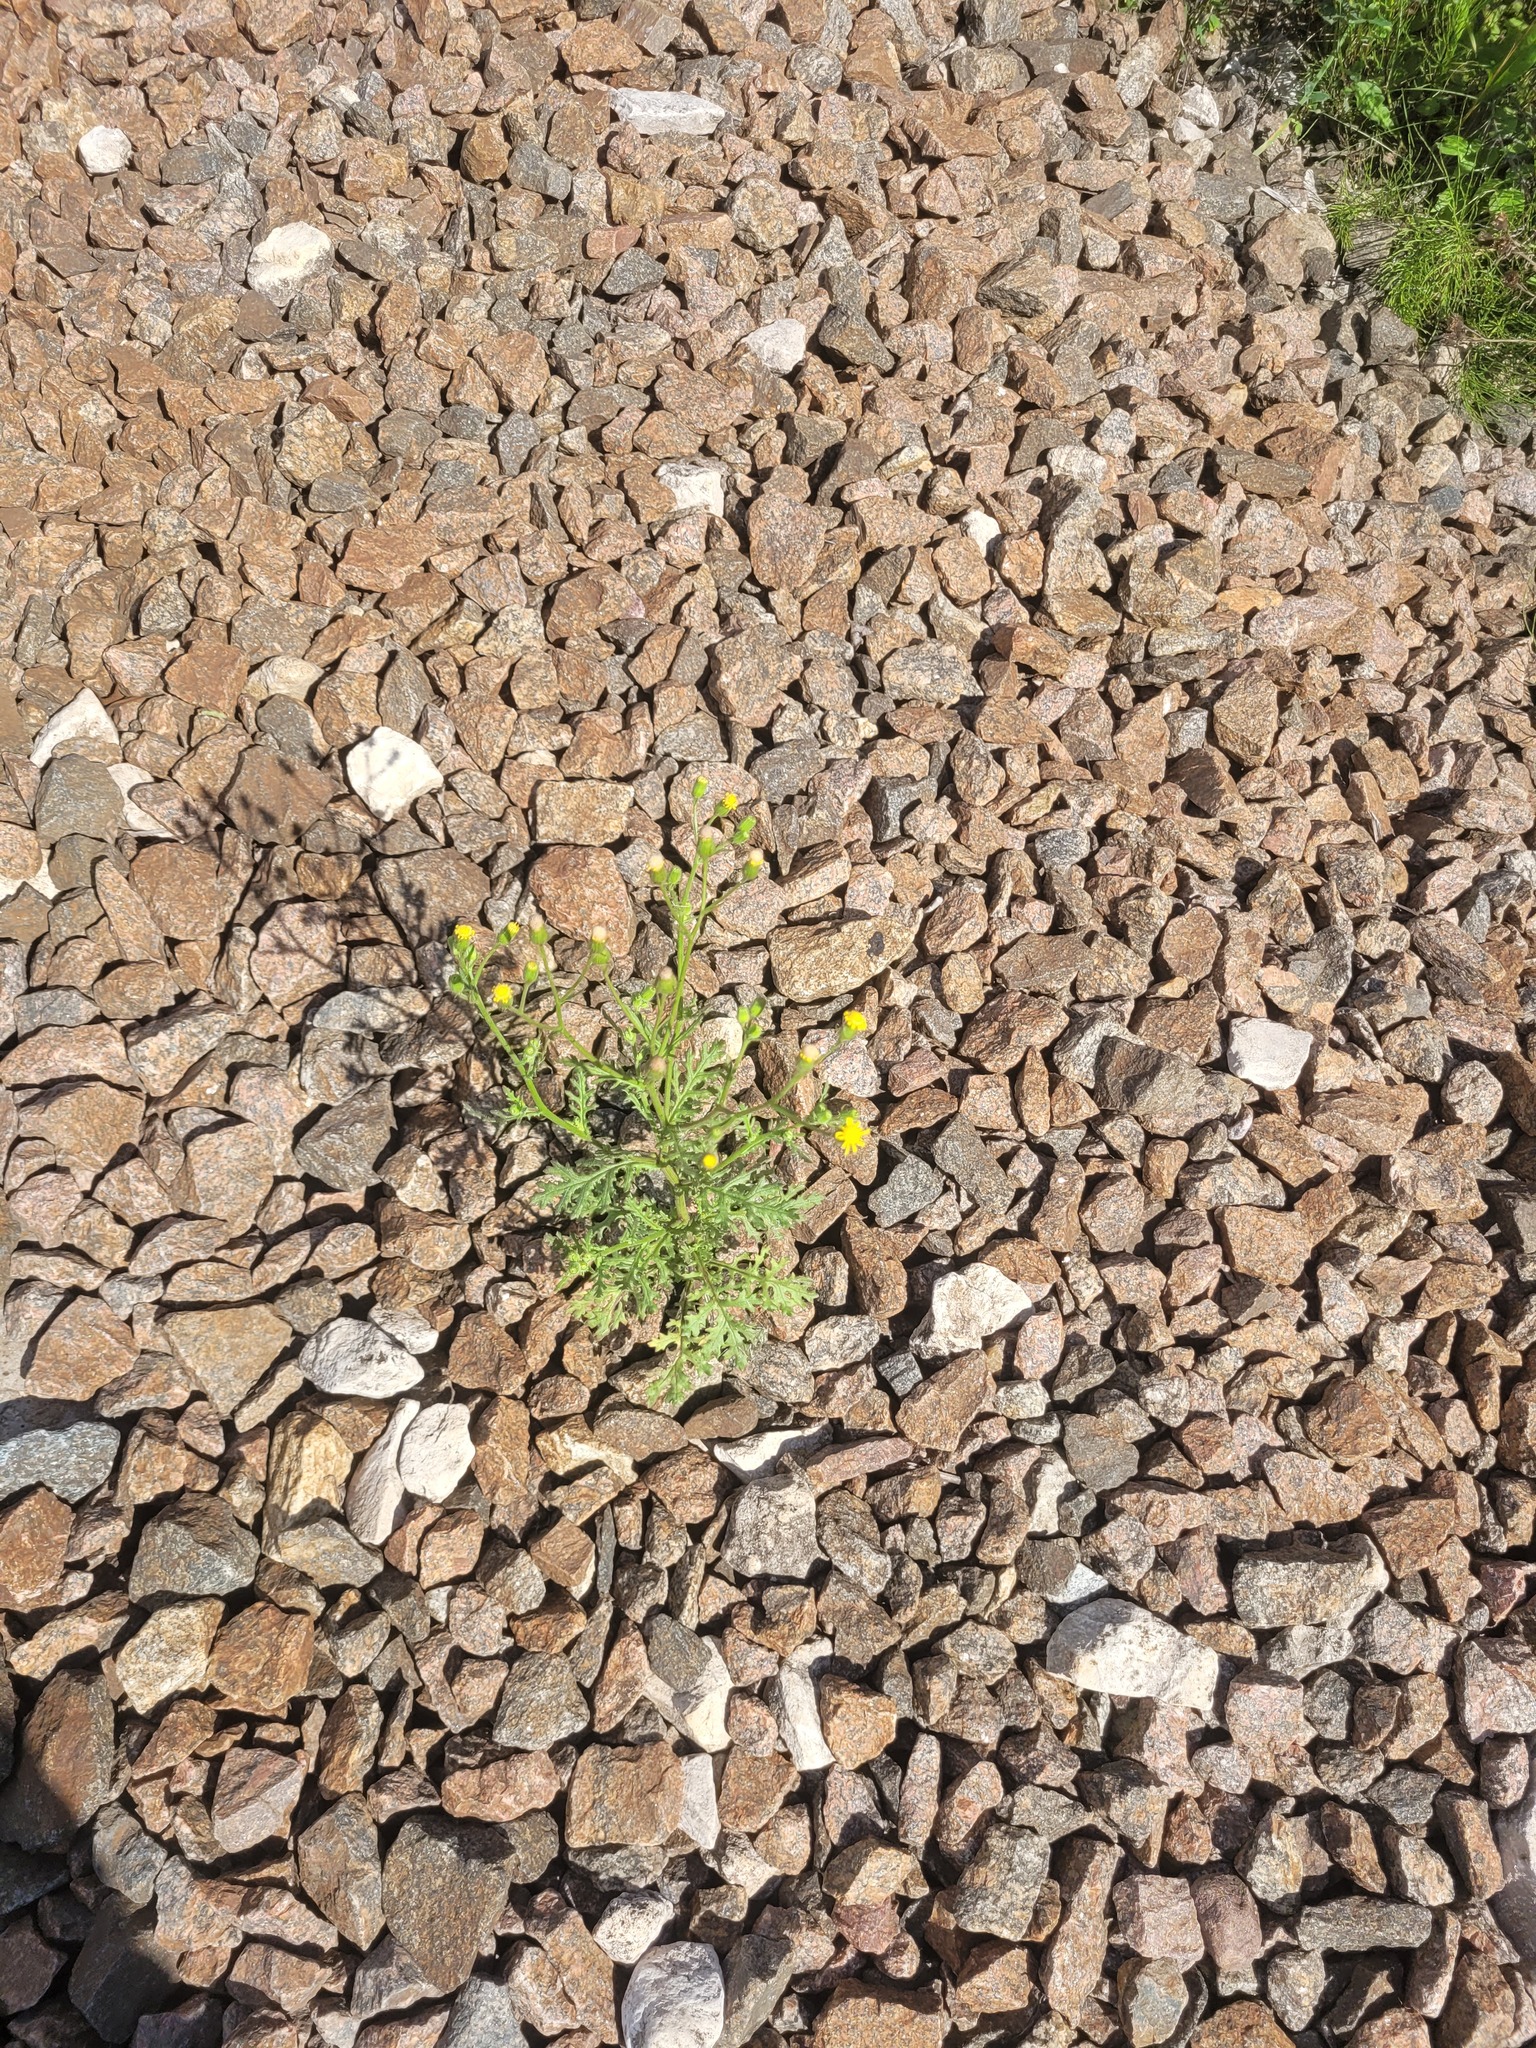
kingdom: Plantae
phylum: Tracheophyta
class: Magnoliopsida
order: Asterales
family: Asteraceae
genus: Senecio
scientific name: Senecio viscosus
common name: Sticky groundsel
